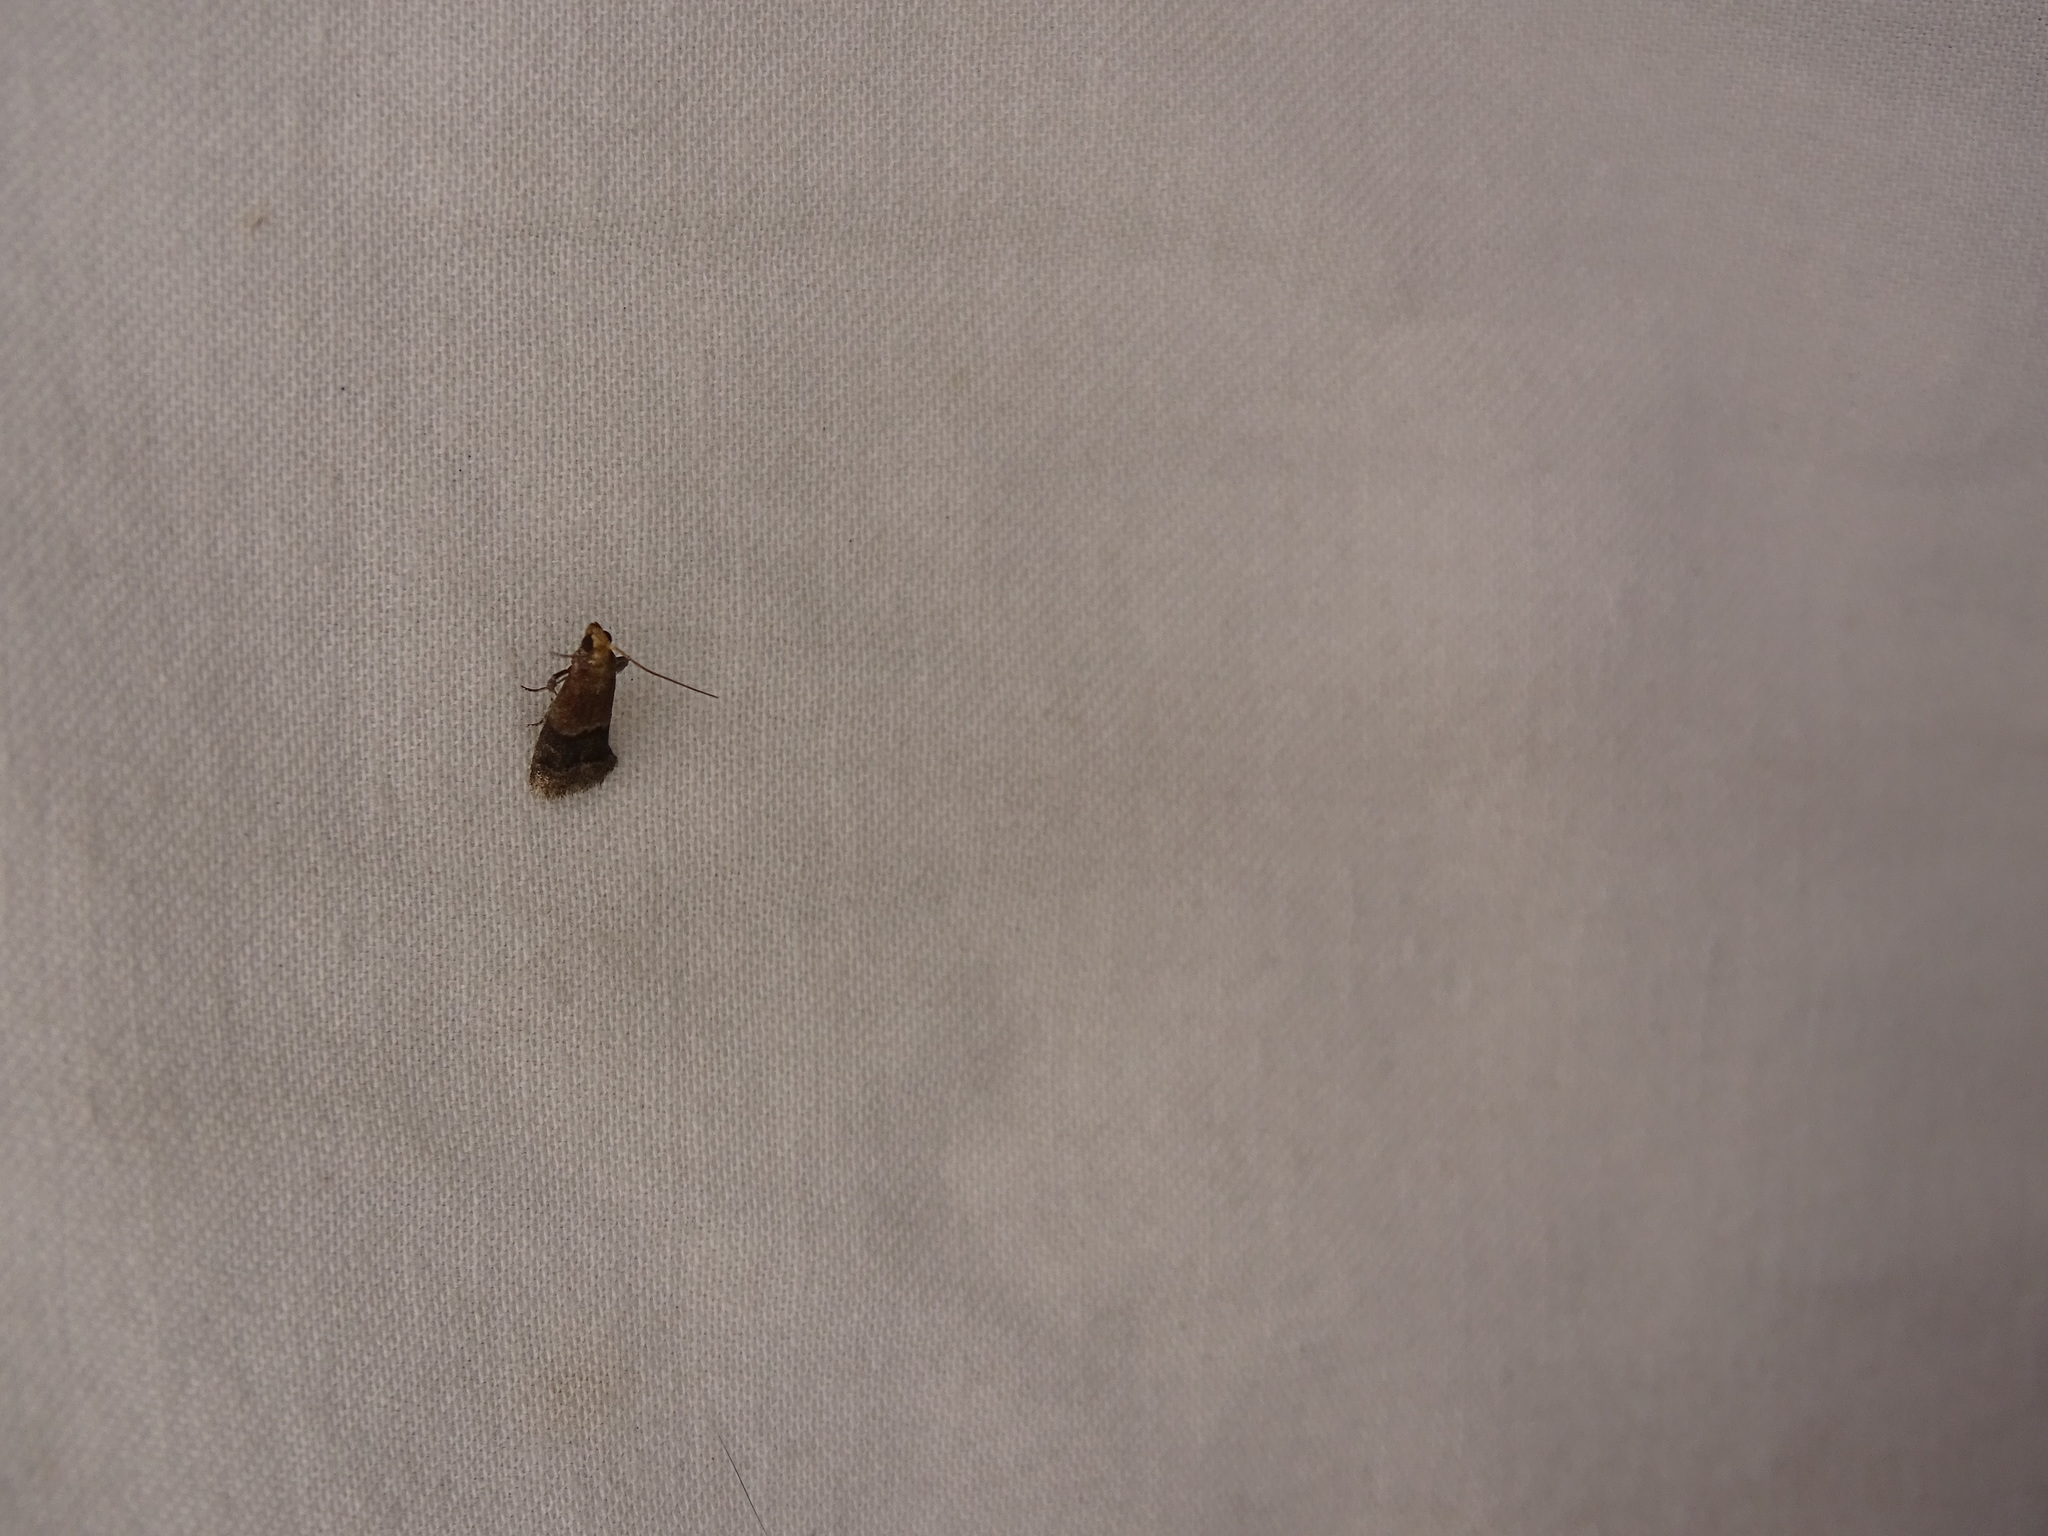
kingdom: Animalia
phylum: Arthropoda
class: Insecta
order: Lepidoptera
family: Pyralidae
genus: Eulogia
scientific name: Eulogia ochrifrontella
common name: Broad-banded eulogia moth
